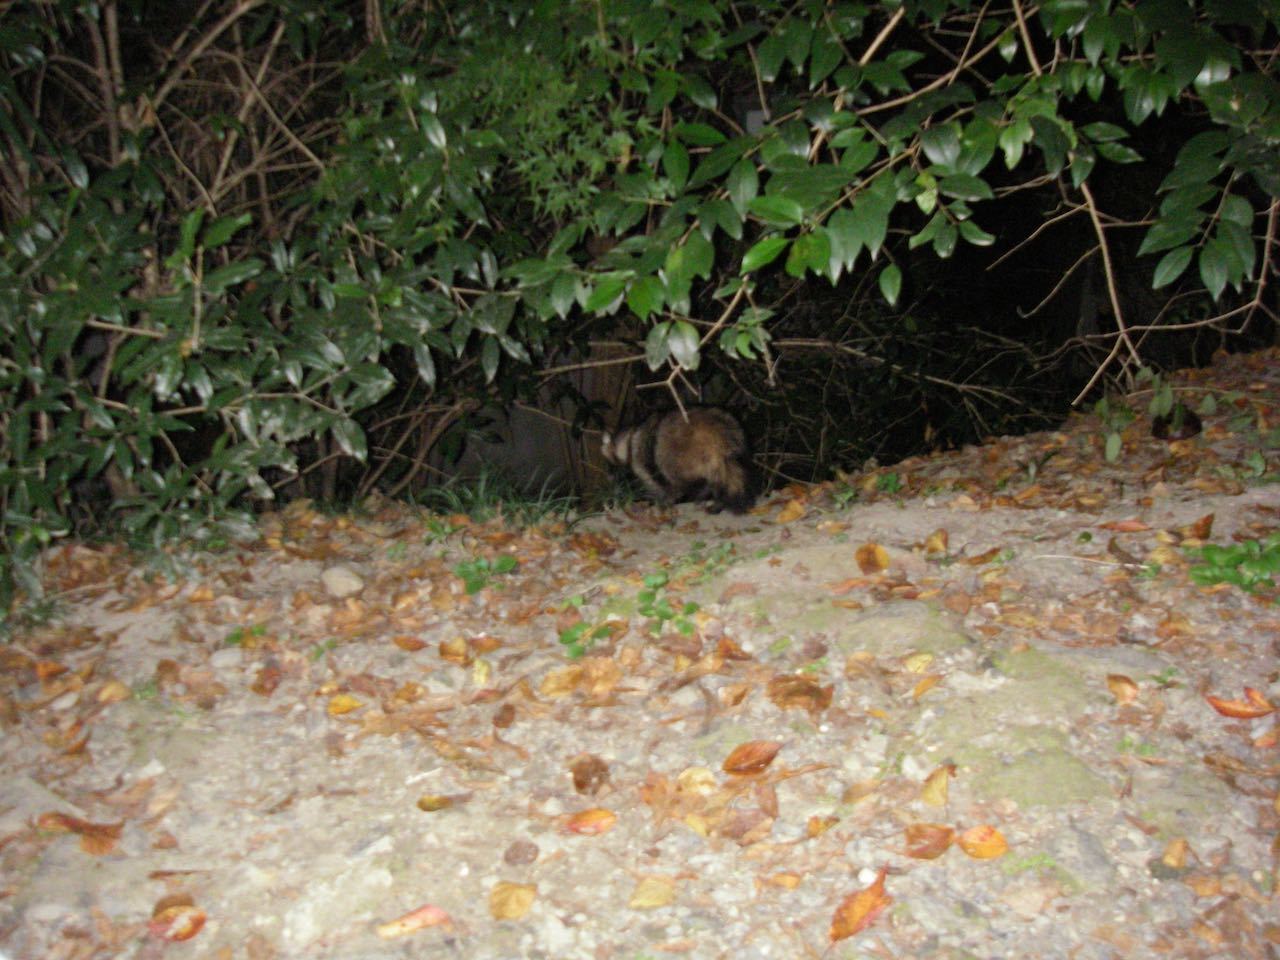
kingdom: Animalia
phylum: Chordata
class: Mammalia
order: Carnivora
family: Canidae
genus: Nyctereutes
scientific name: Nyctereutes
